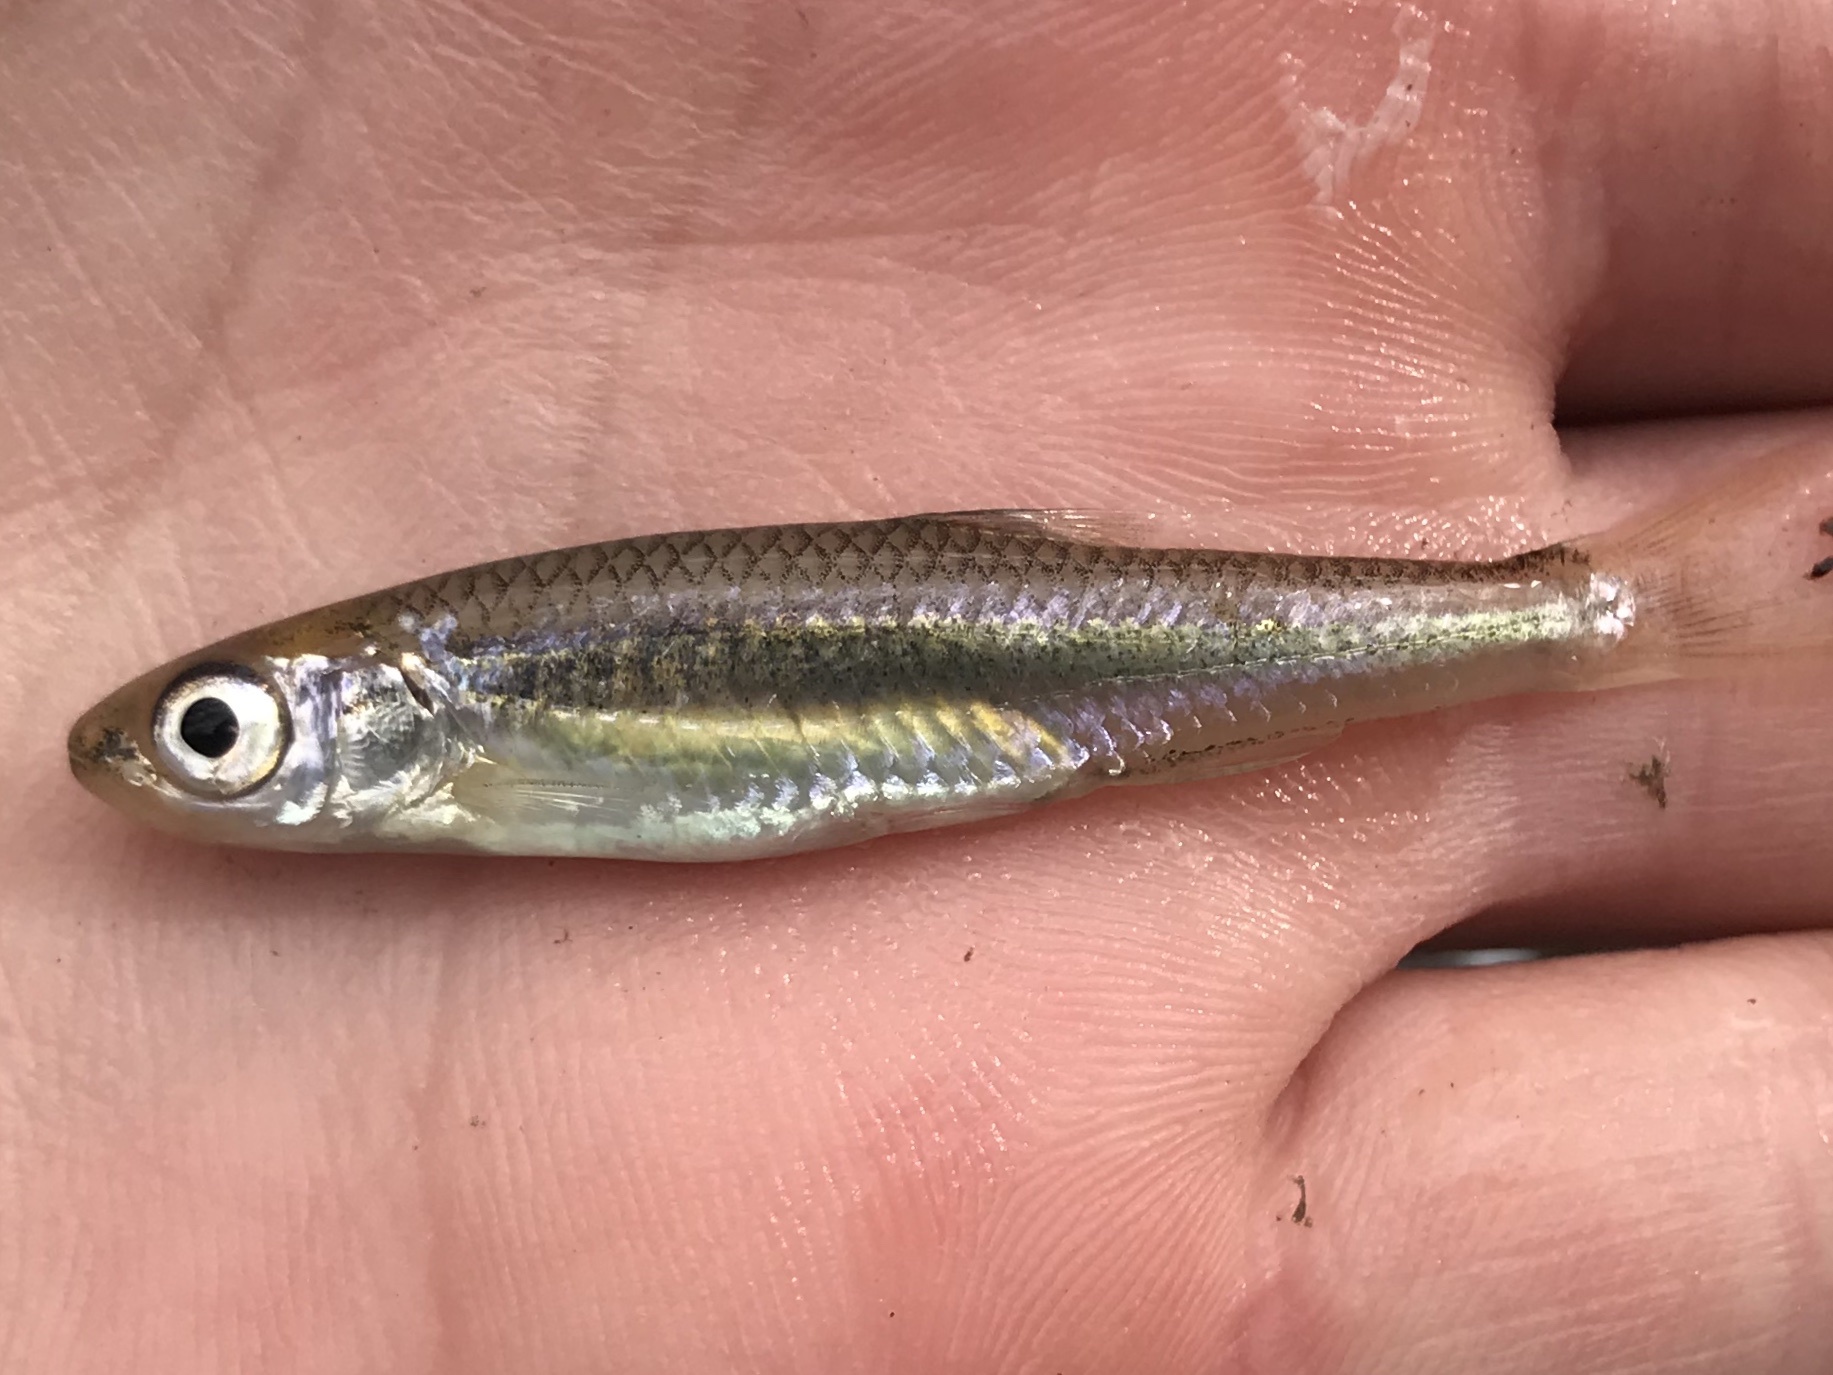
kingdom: Animalia
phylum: Chordata
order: Cypriniformes
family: Cyprinidae
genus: Notropis
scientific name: Notropis amabilis
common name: Texas shiner
